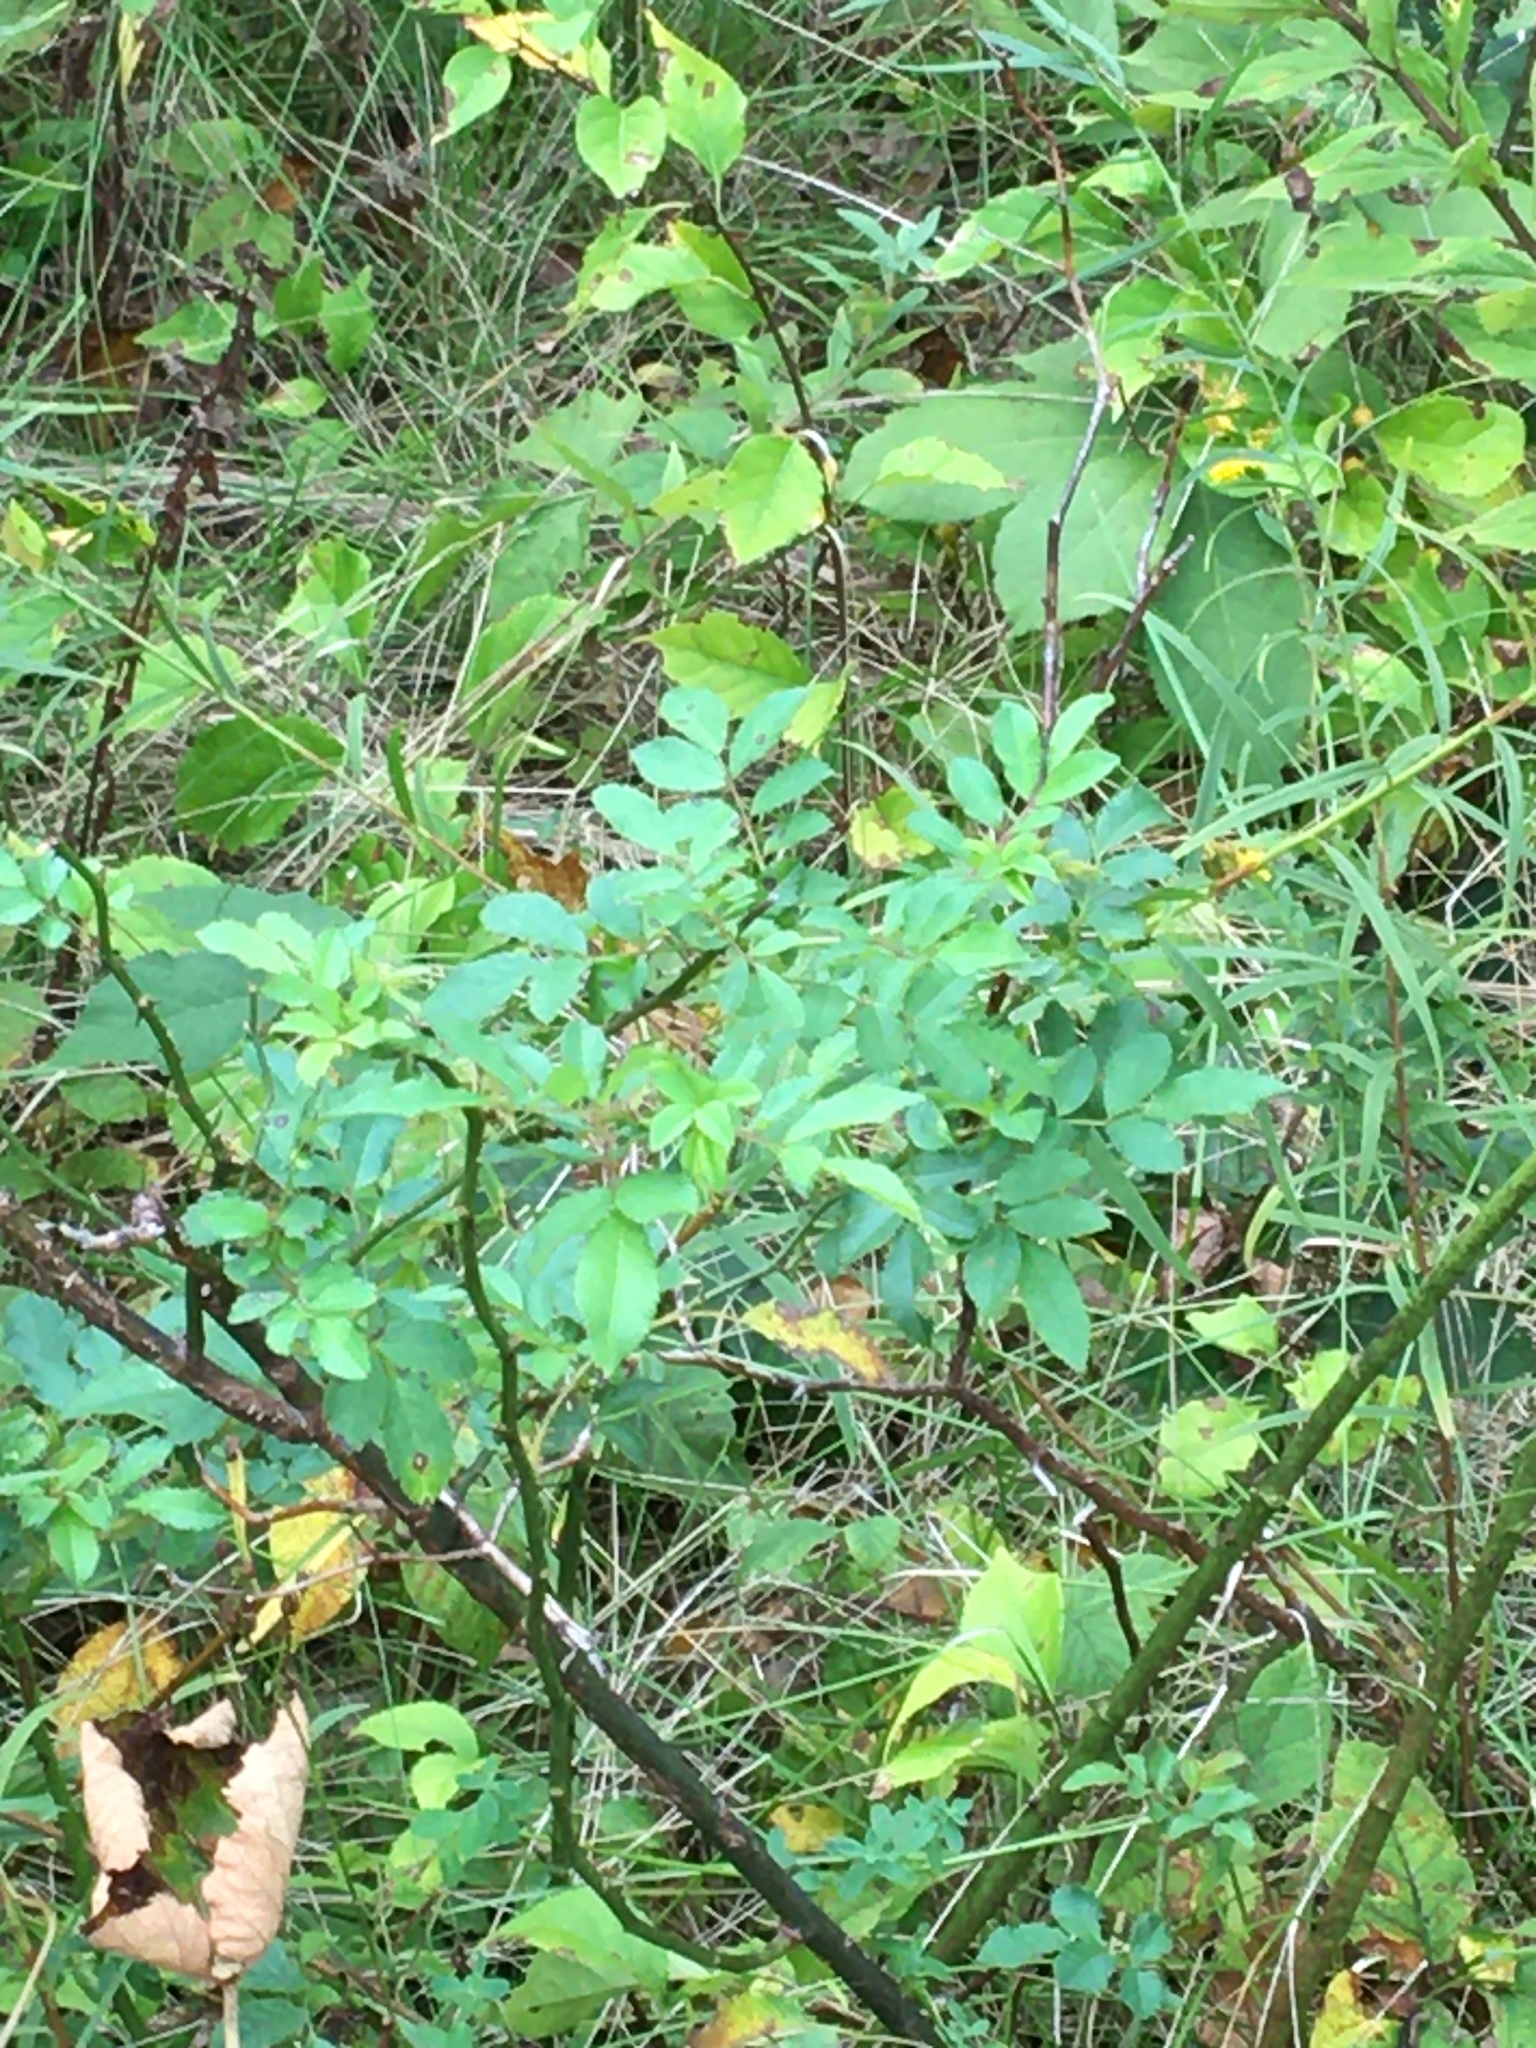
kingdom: Plantae
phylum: Tracheophyta
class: Magnoliopsida
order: Rosales
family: Rosaceae
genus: Rosa
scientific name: Rosa multiflora
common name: Multiflora rose
